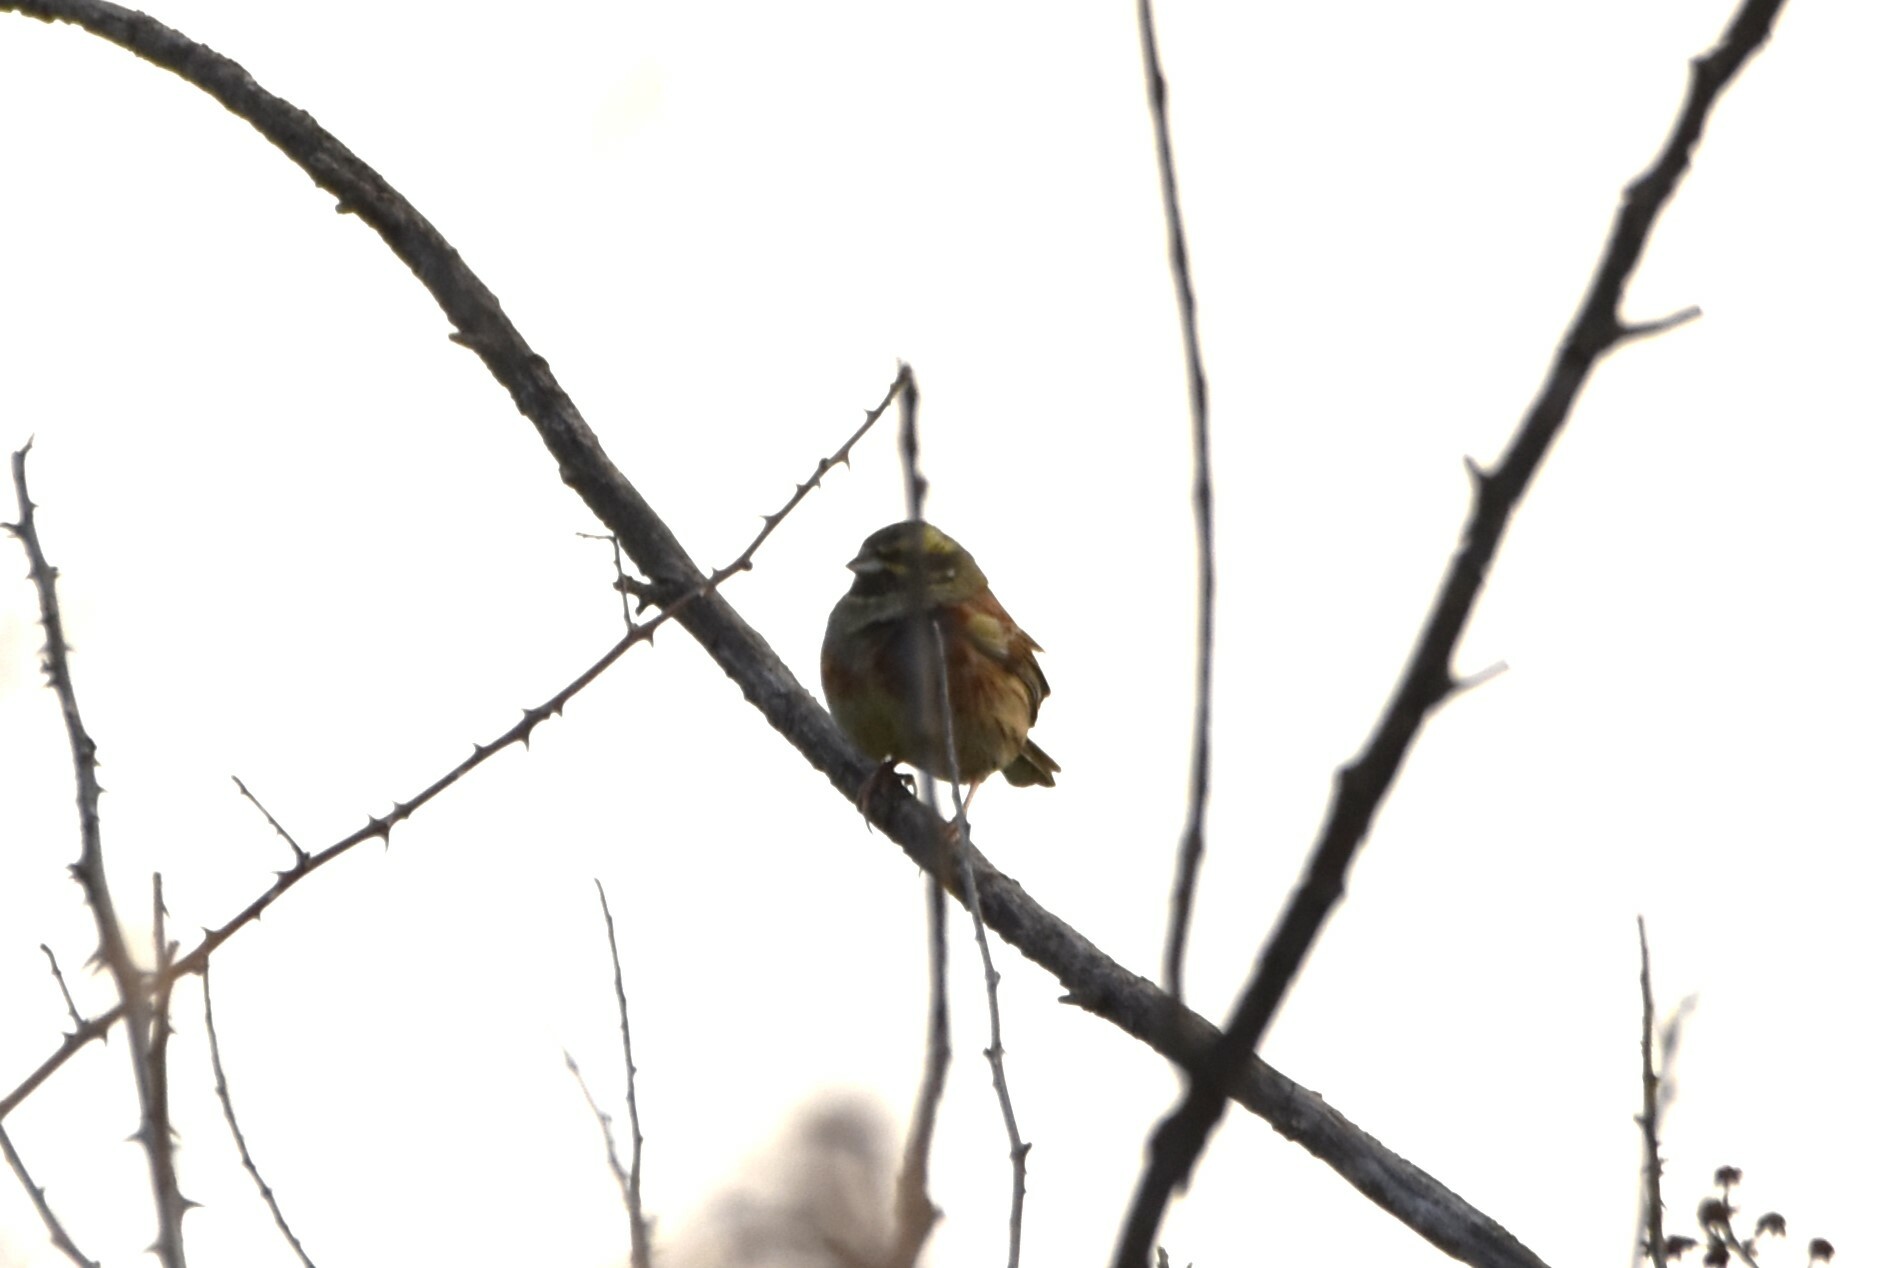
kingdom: Animalia
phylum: Chordata
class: Aves
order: Passeriformes
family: Emberizidae
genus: Emberiza
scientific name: Emberiza cirlus
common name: Cirl bunting
